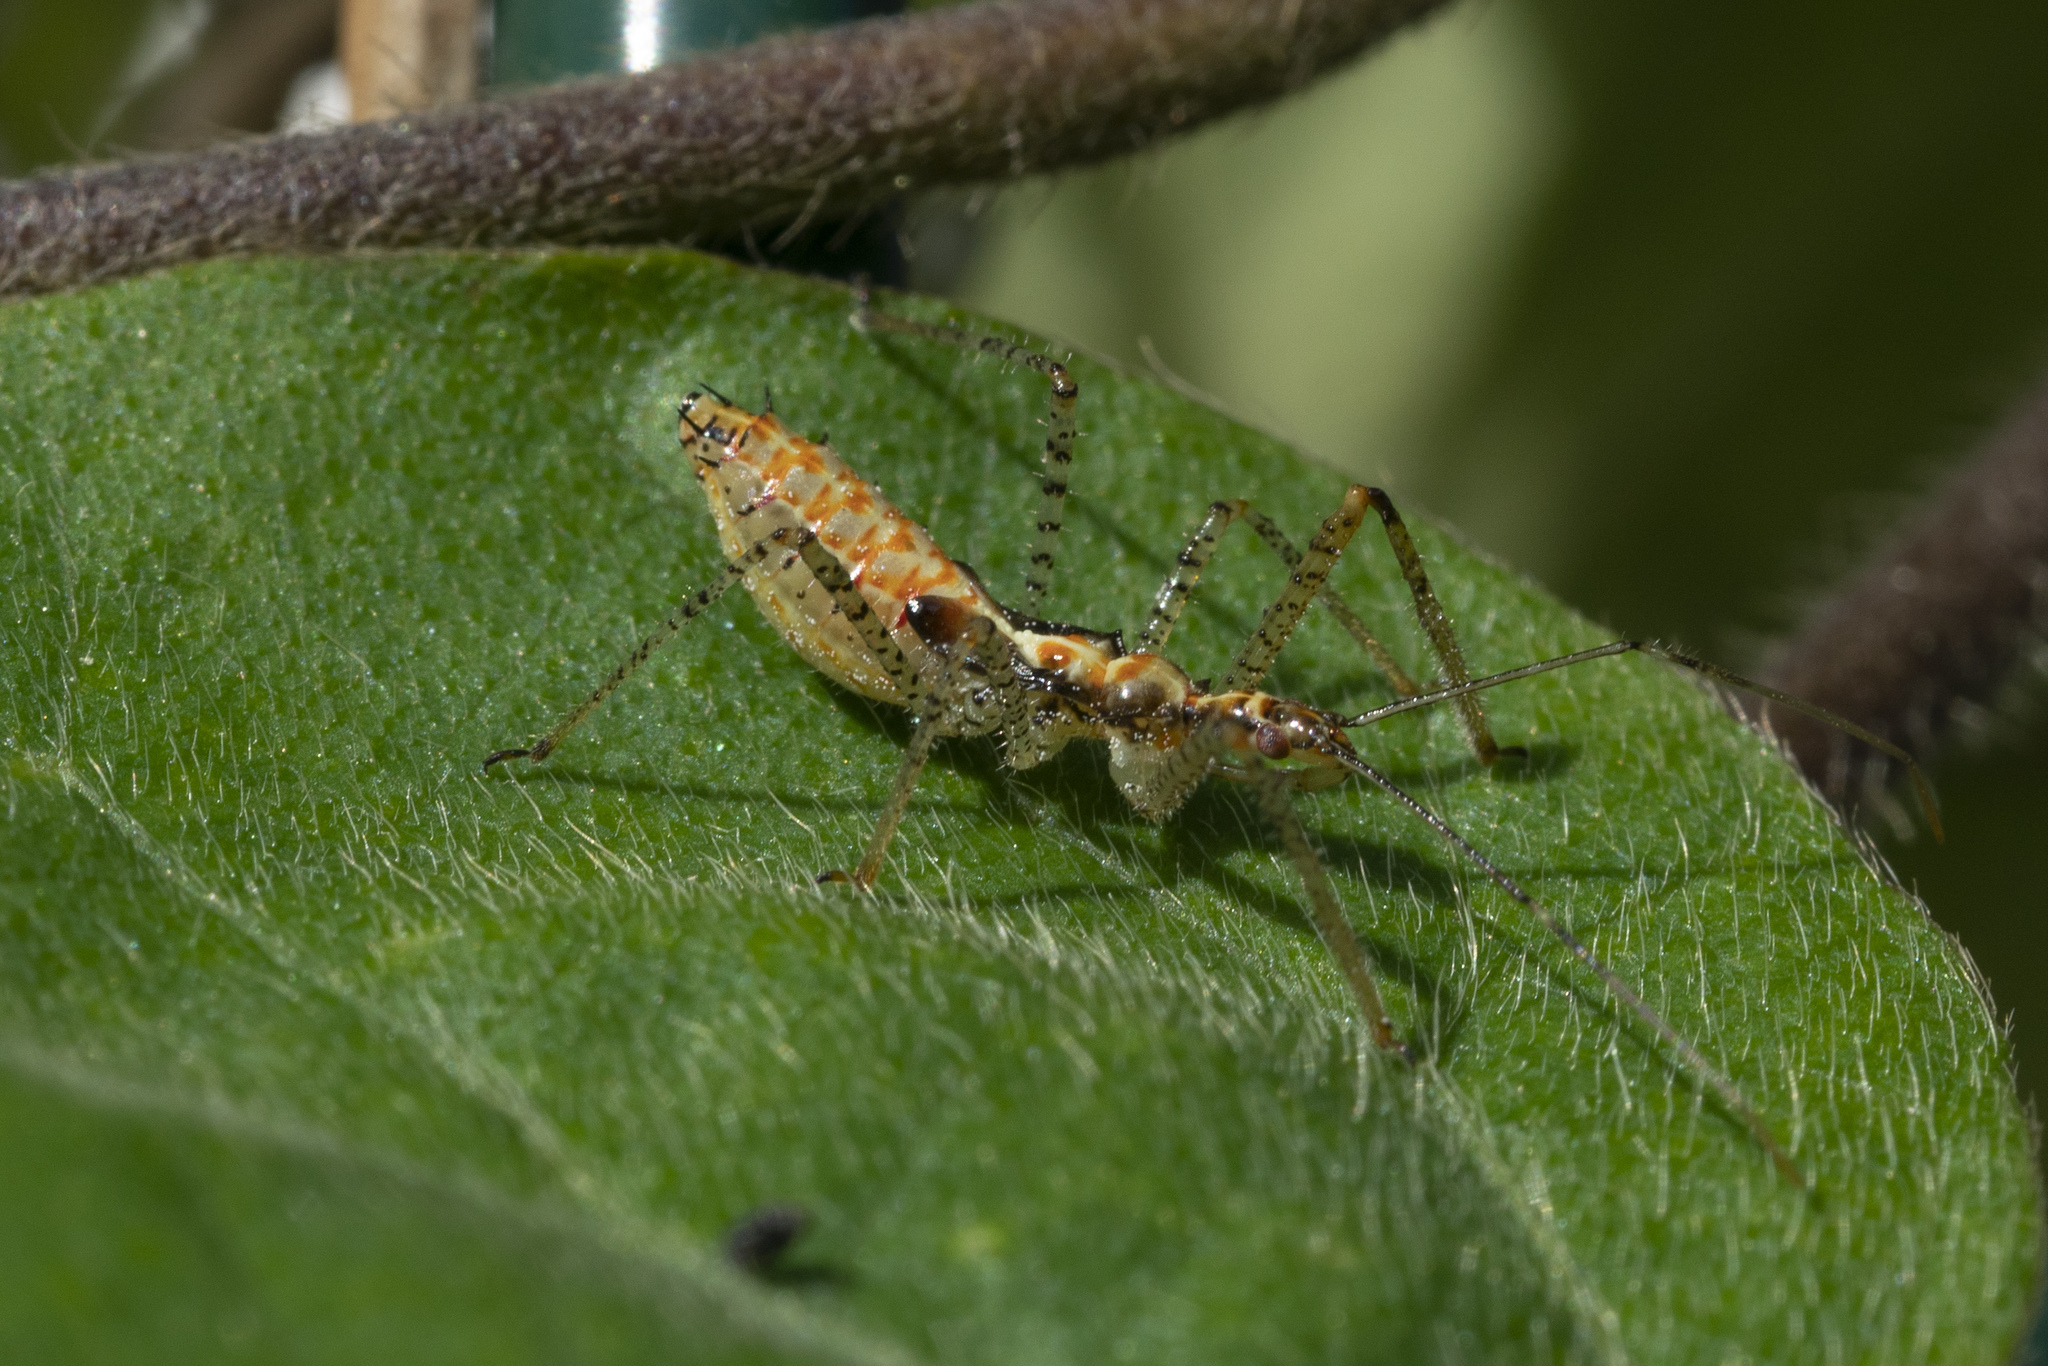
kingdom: Animalia
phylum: Arthropoda
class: Insecta
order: Hemiptera
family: Reduviidae
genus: Zelus
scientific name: Zelus renardii
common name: Assassin bug
